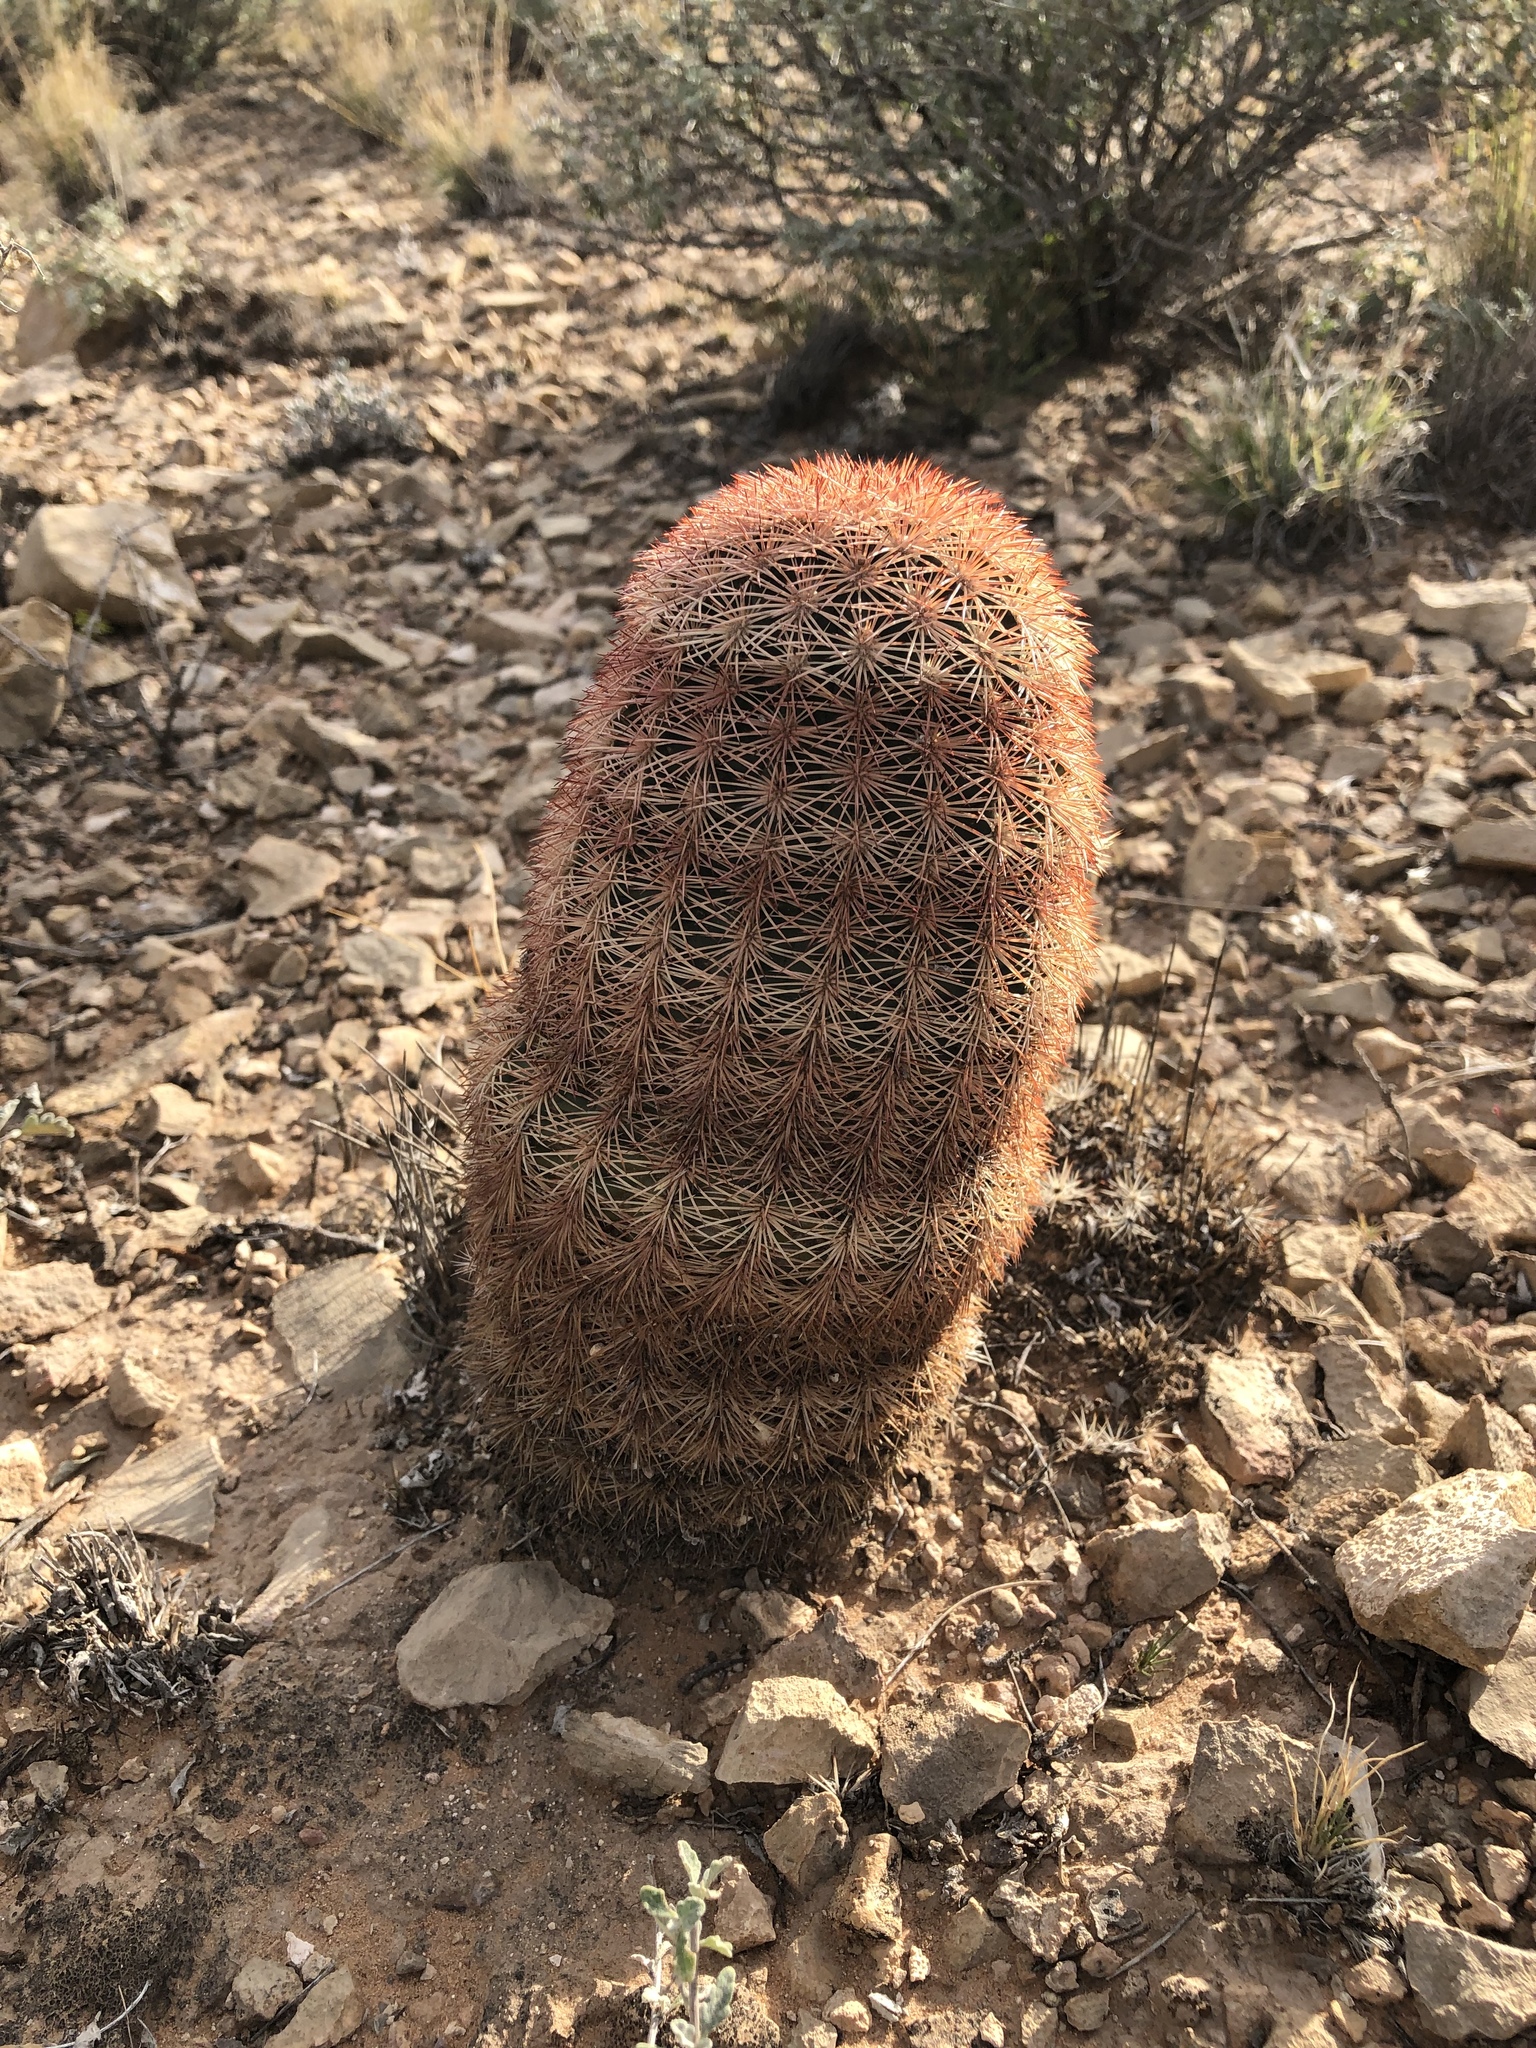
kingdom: Plantae
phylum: Tracheophyta
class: Magnoliopsida
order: Caryophyllales
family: Cactaceae
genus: Echinocereus
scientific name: Echinocereus dasyacanthus
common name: Spiny hedgehog cactus
